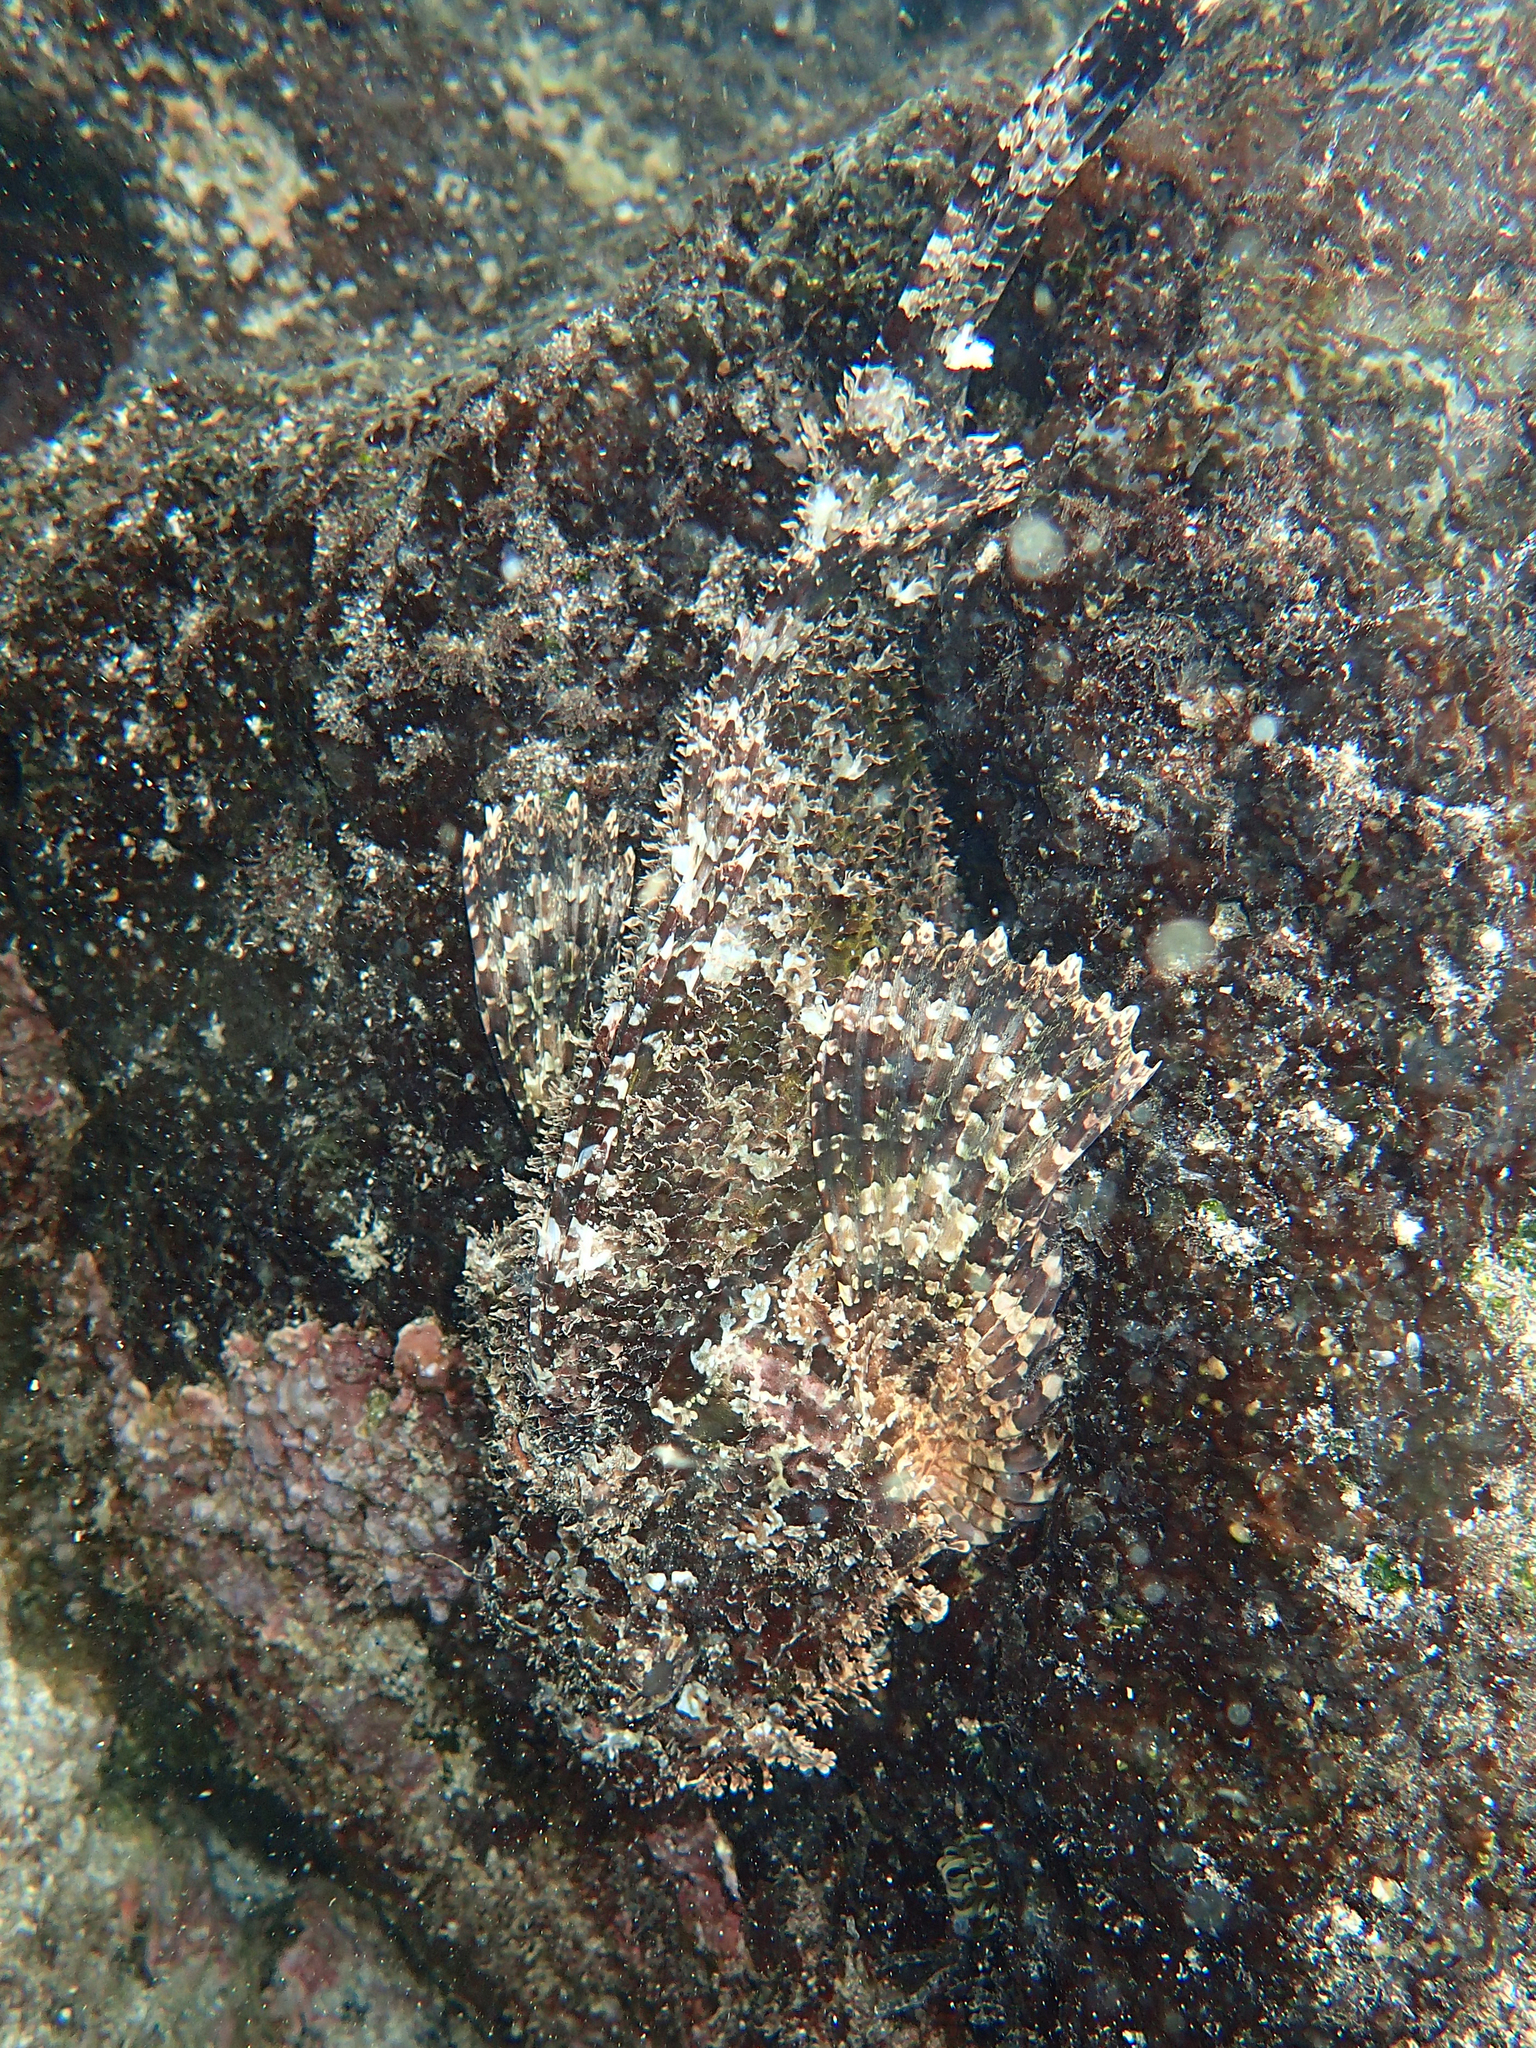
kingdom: Animalia
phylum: Chordata
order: Scorpaeniformes
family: Scorpaenidae
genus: Scorpaena
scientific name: Scorpaena mystes
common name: Pacific spotted scorpionfish
